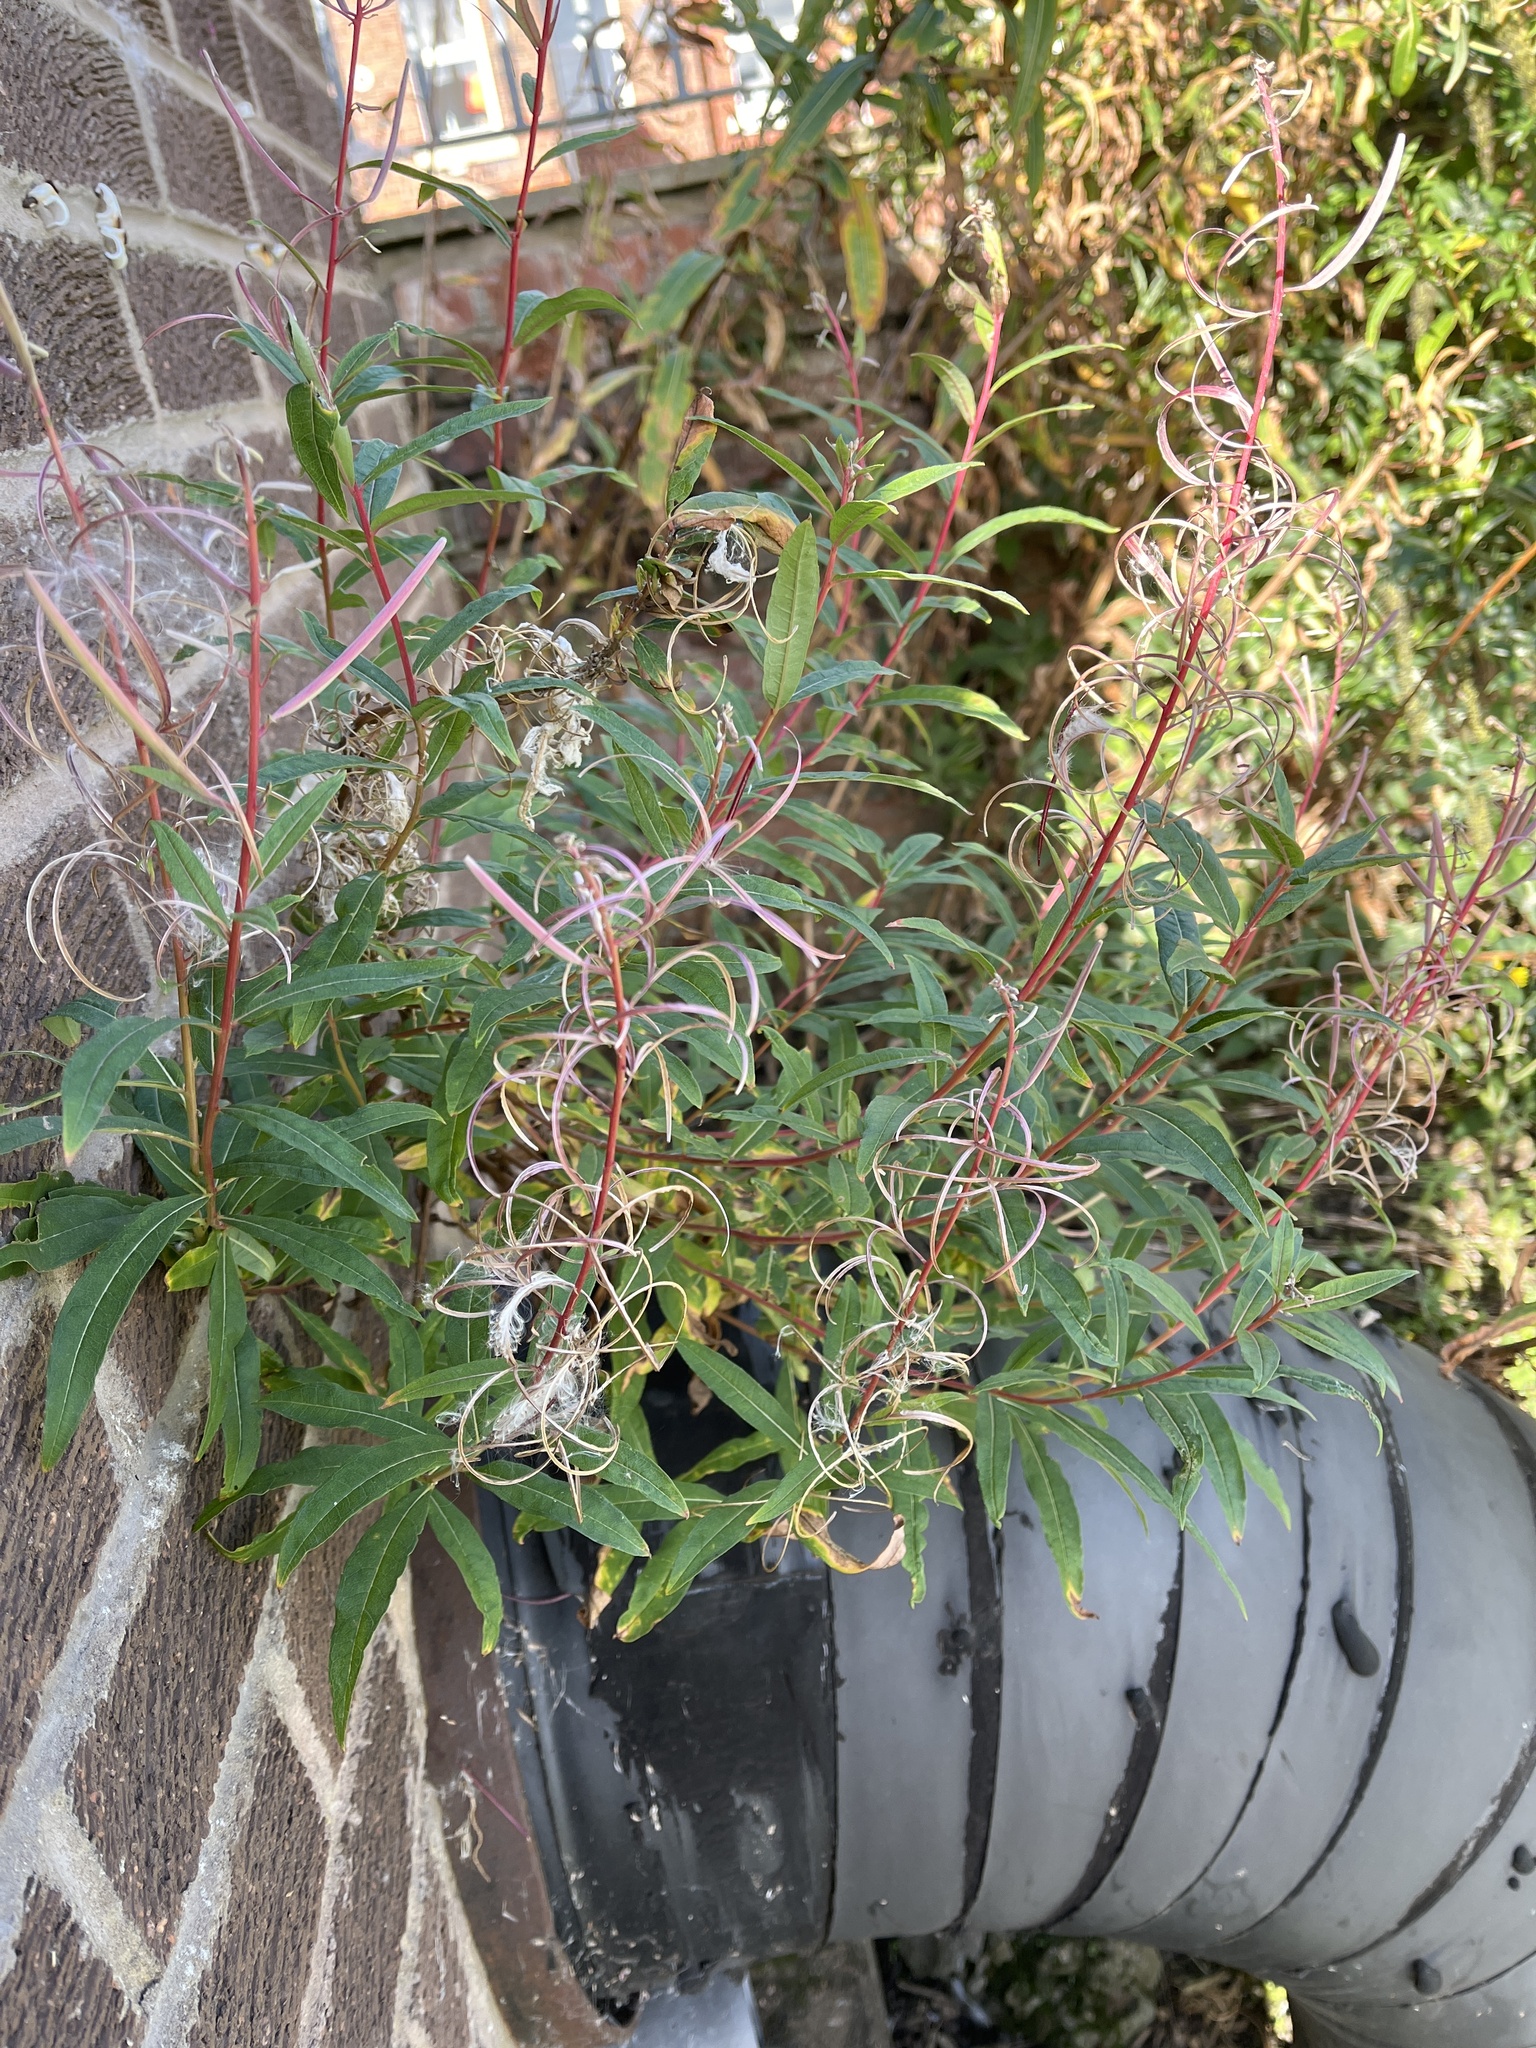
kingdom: Plantae
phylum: Tracheophyta
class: Magnoliopsida
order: Myrtales
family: Onagraceae
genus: Chamaenerion
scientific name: Chamaenerion angustifolium
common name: Fireweed
